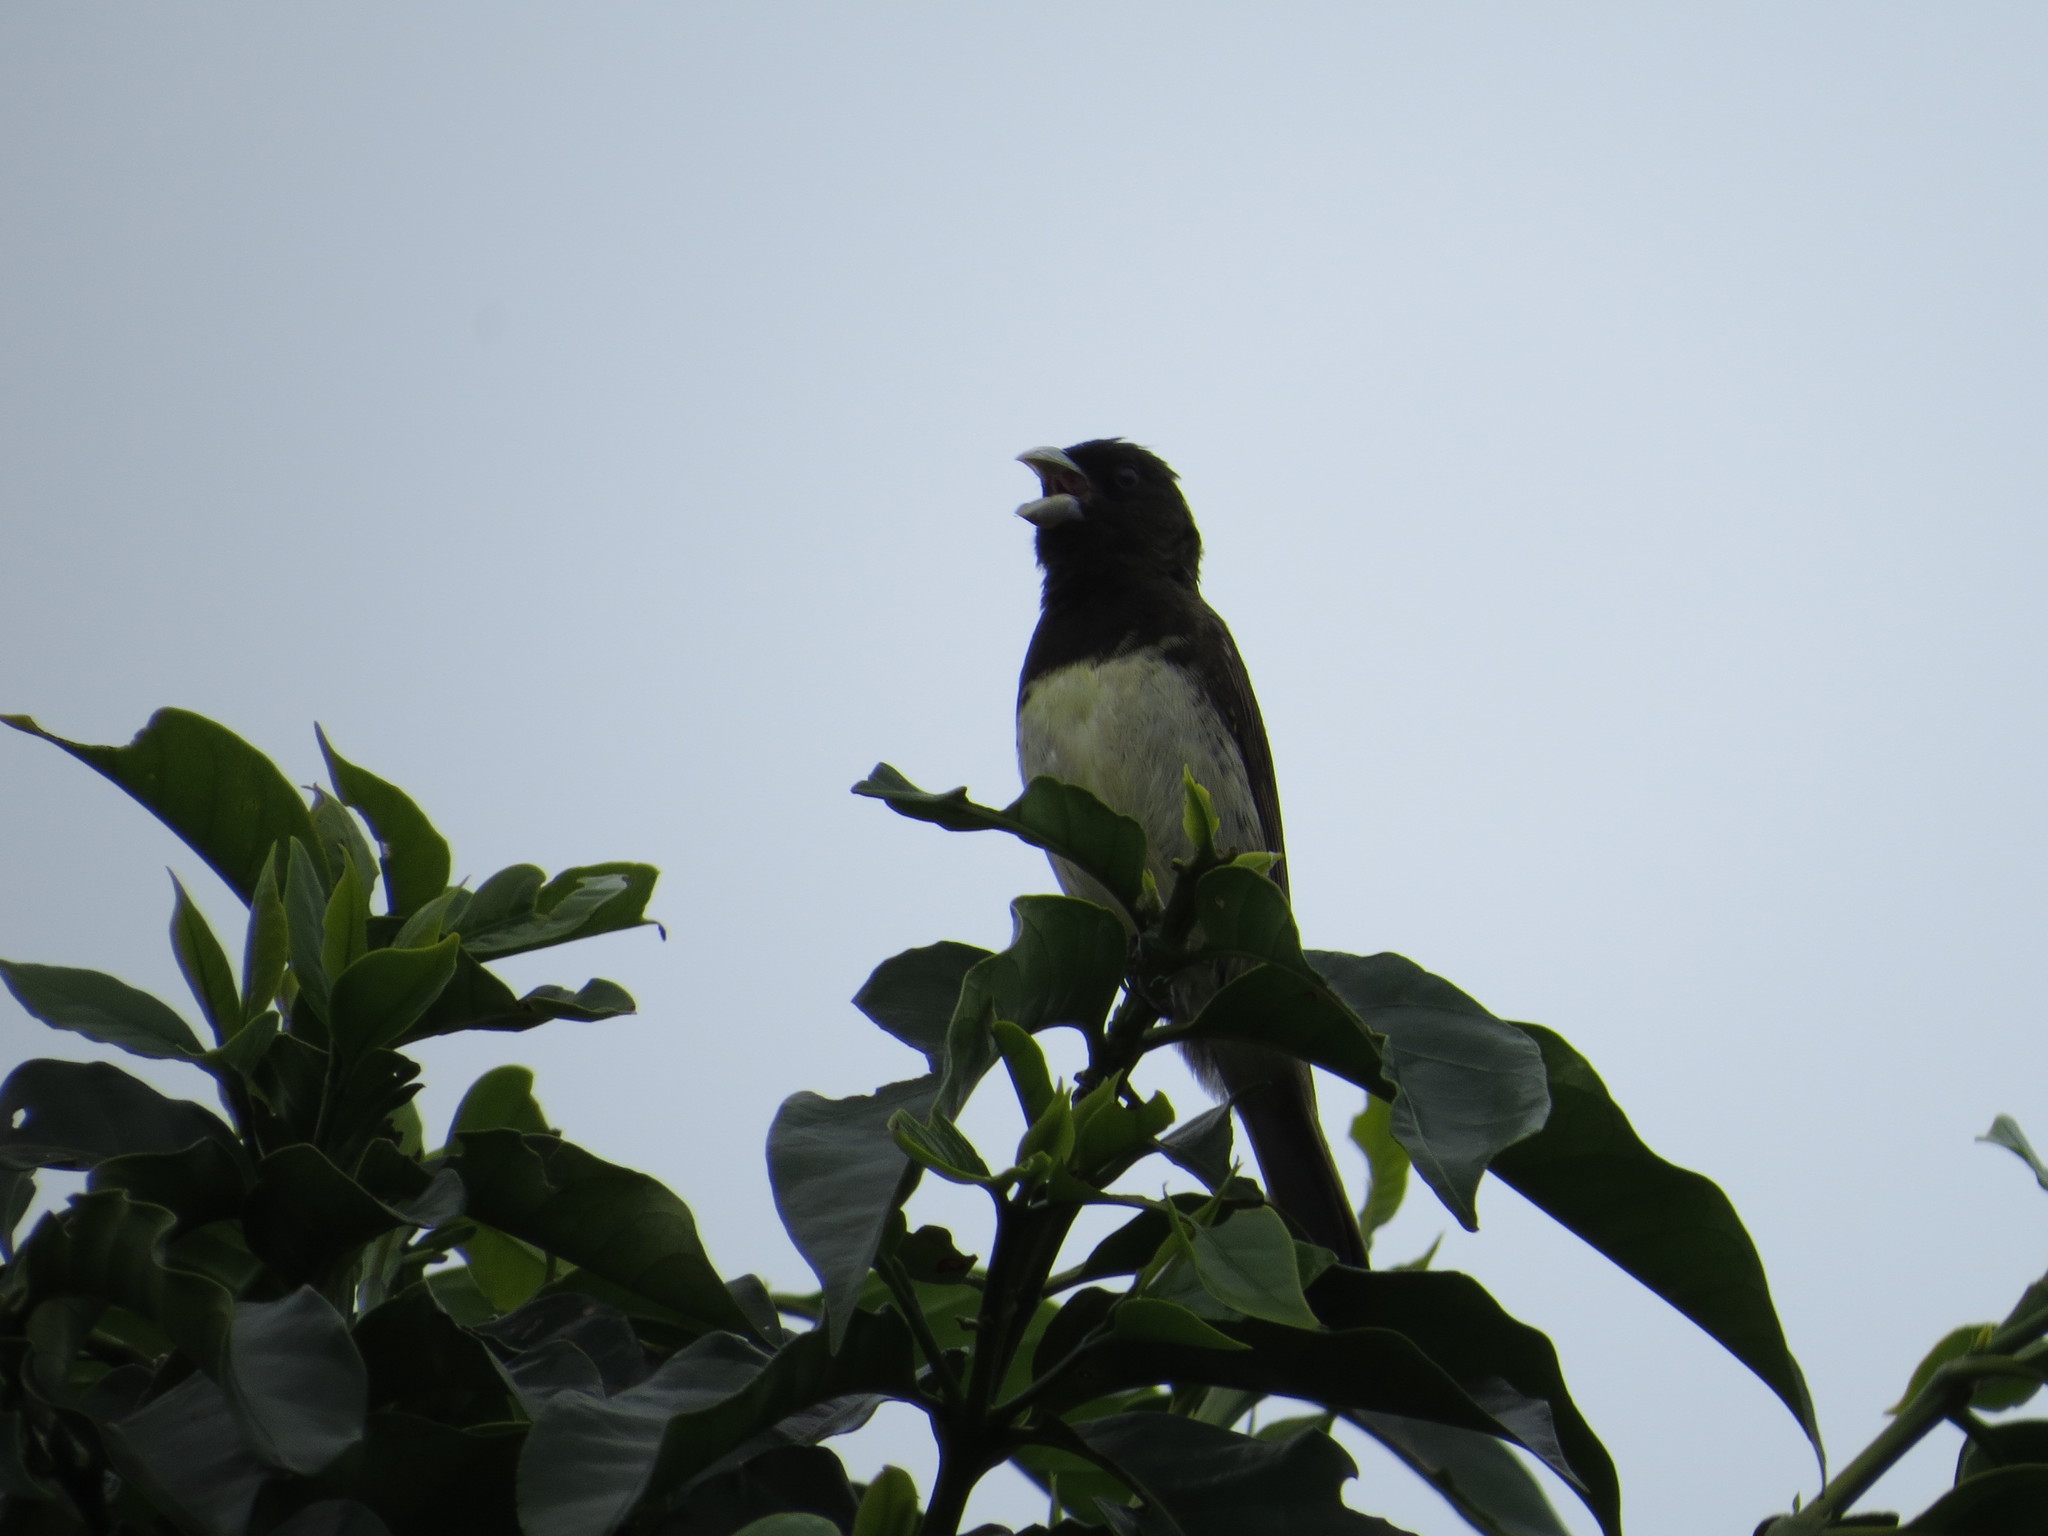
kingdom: Animalia
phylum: Chordata
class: Aves
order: Passeriformes
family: Thraupidae
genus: Sporophila
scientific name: Sporophila nigricollis
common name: Yellow-bellied seedeater
